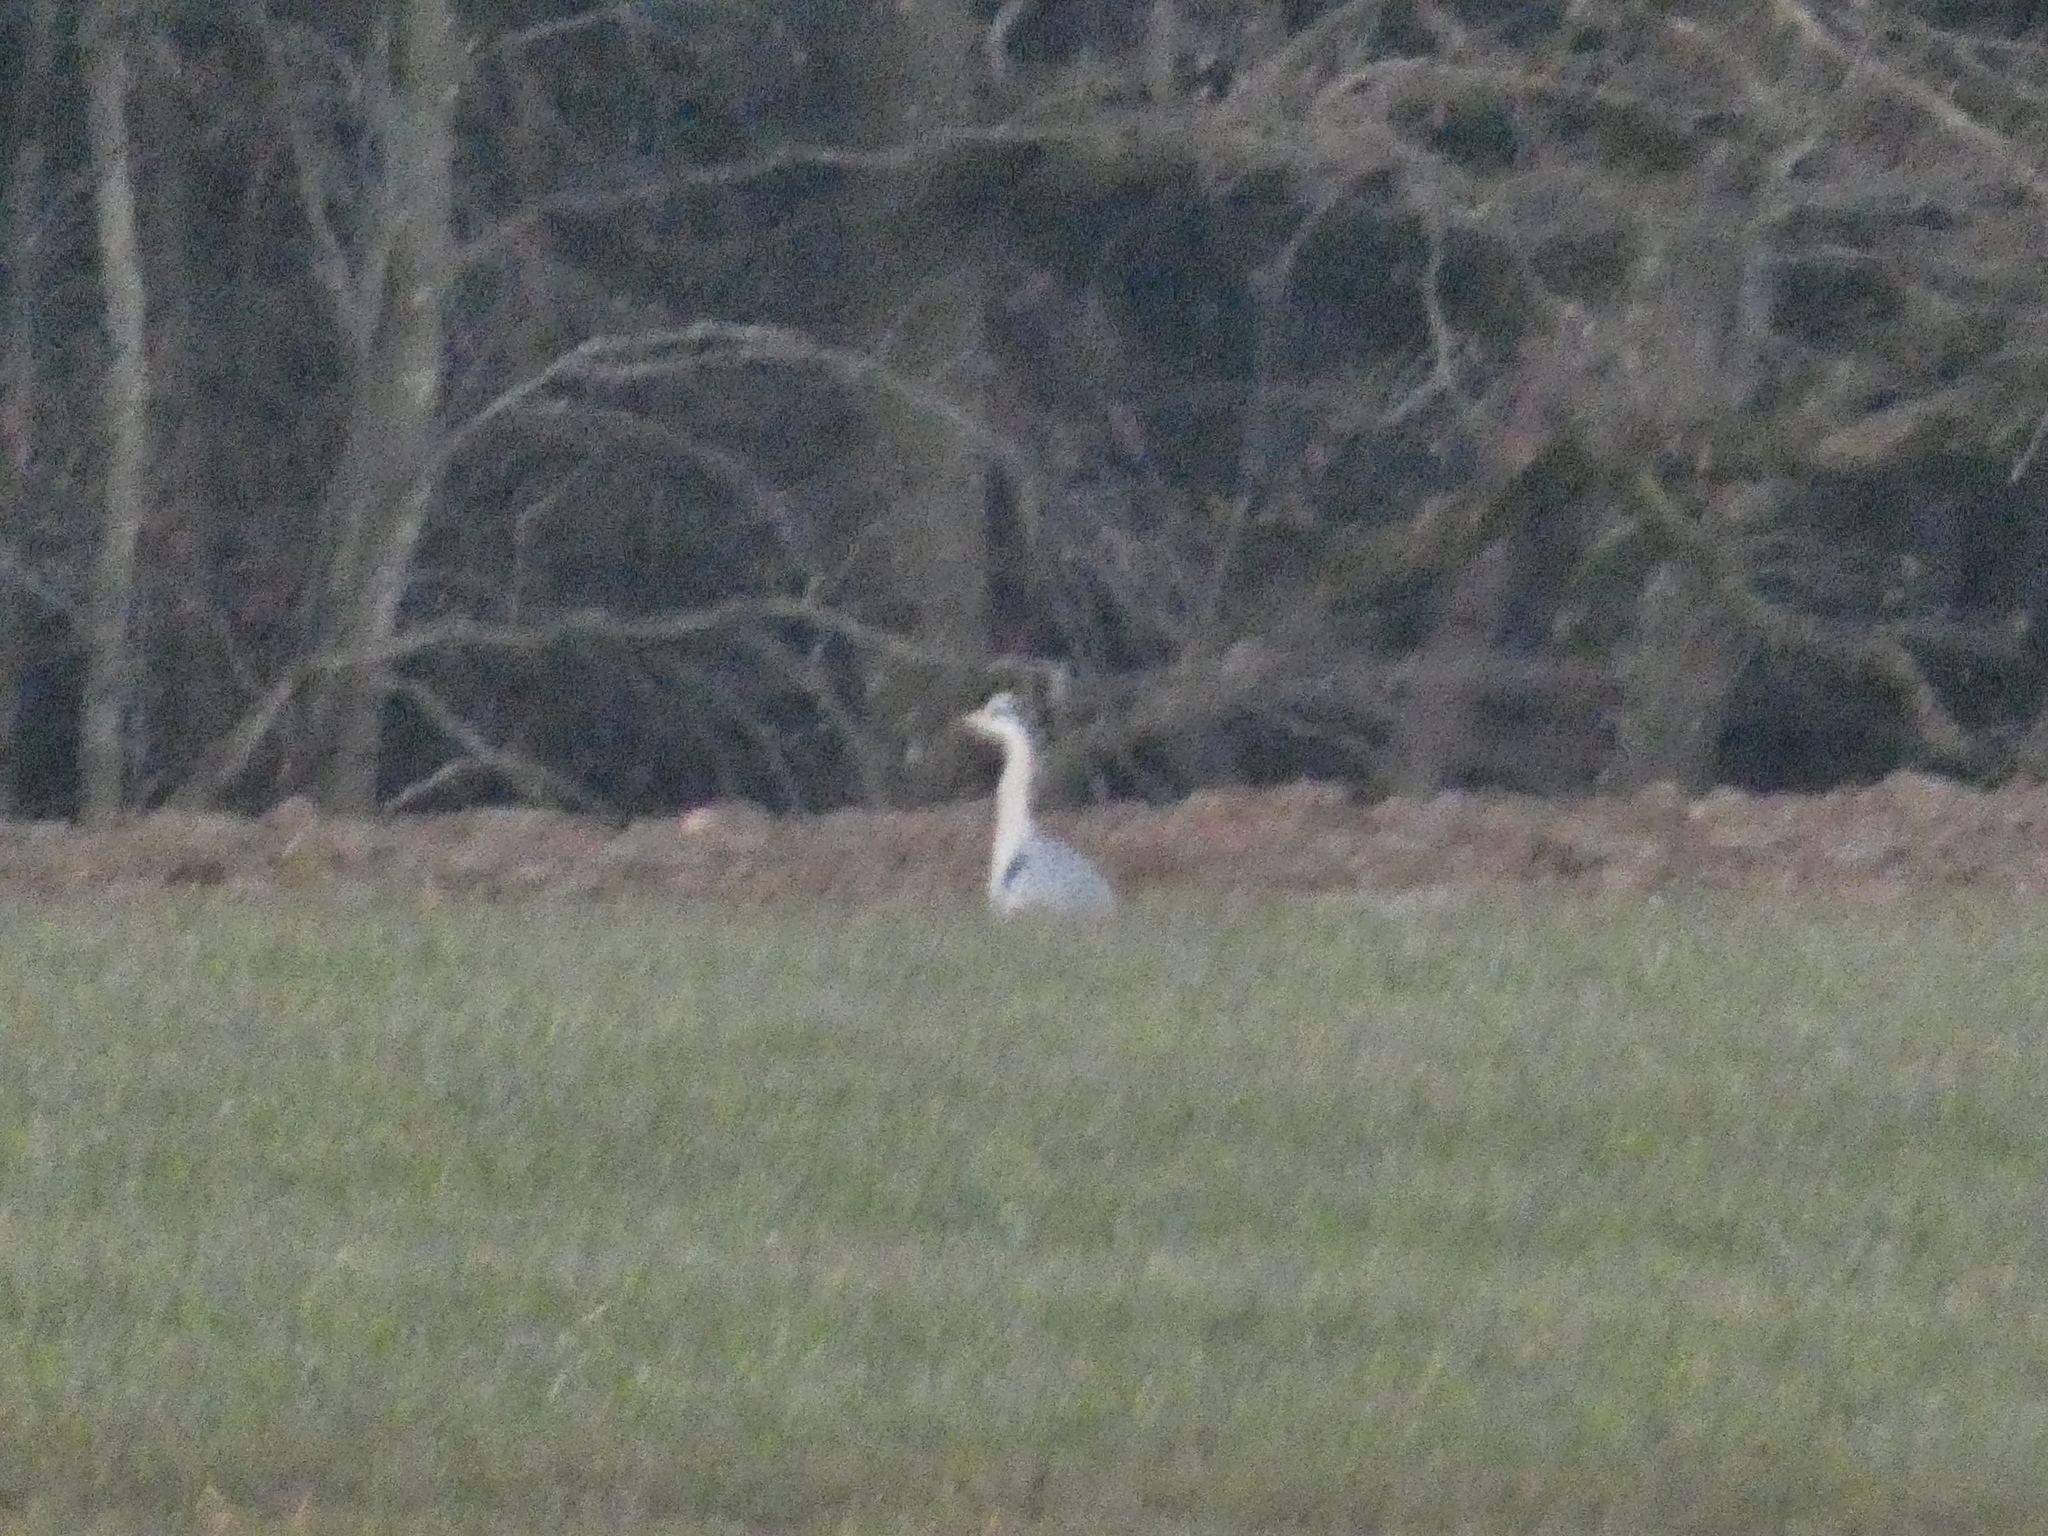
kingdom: Animalia
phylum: Chordata
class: Aves
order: Pelecaniformes
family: Ardeidae
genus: Ardea
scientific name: Ardea cinerea
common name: Grey heron
